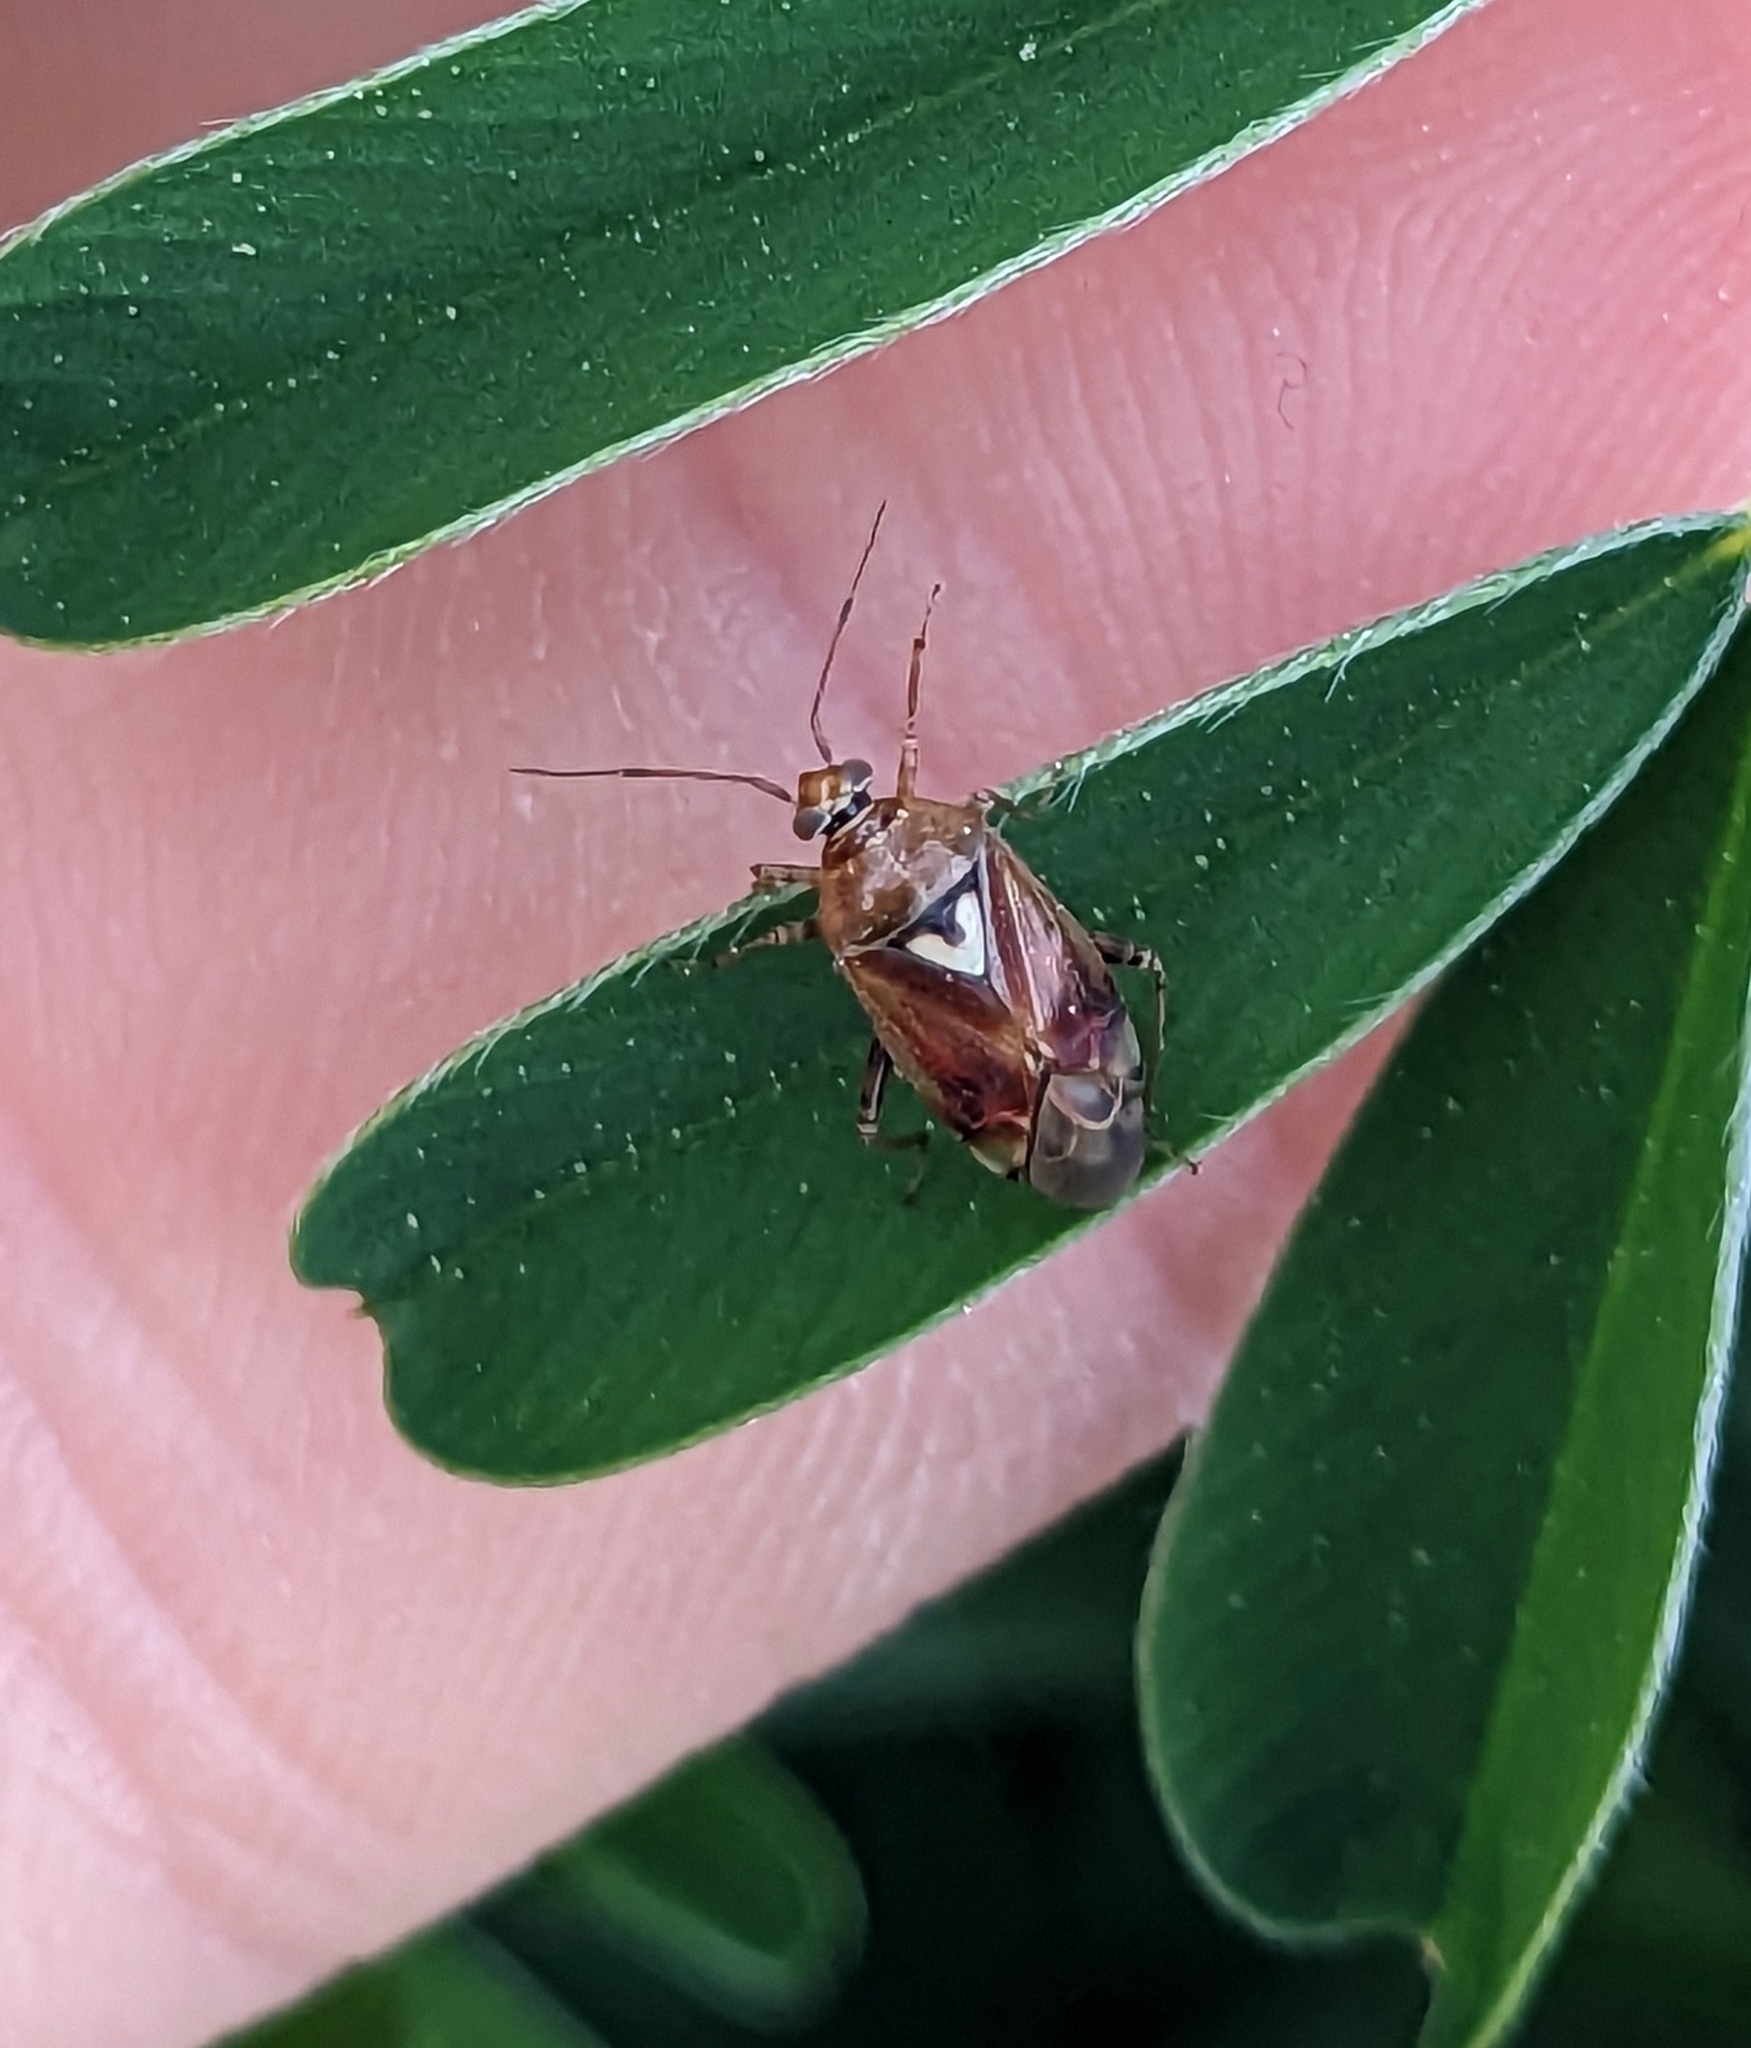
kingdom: Animalia
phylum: Arthropoda
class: Insecta
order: Hemiptera
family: Miridae
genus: Lygus
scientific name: Lygus pratensis
